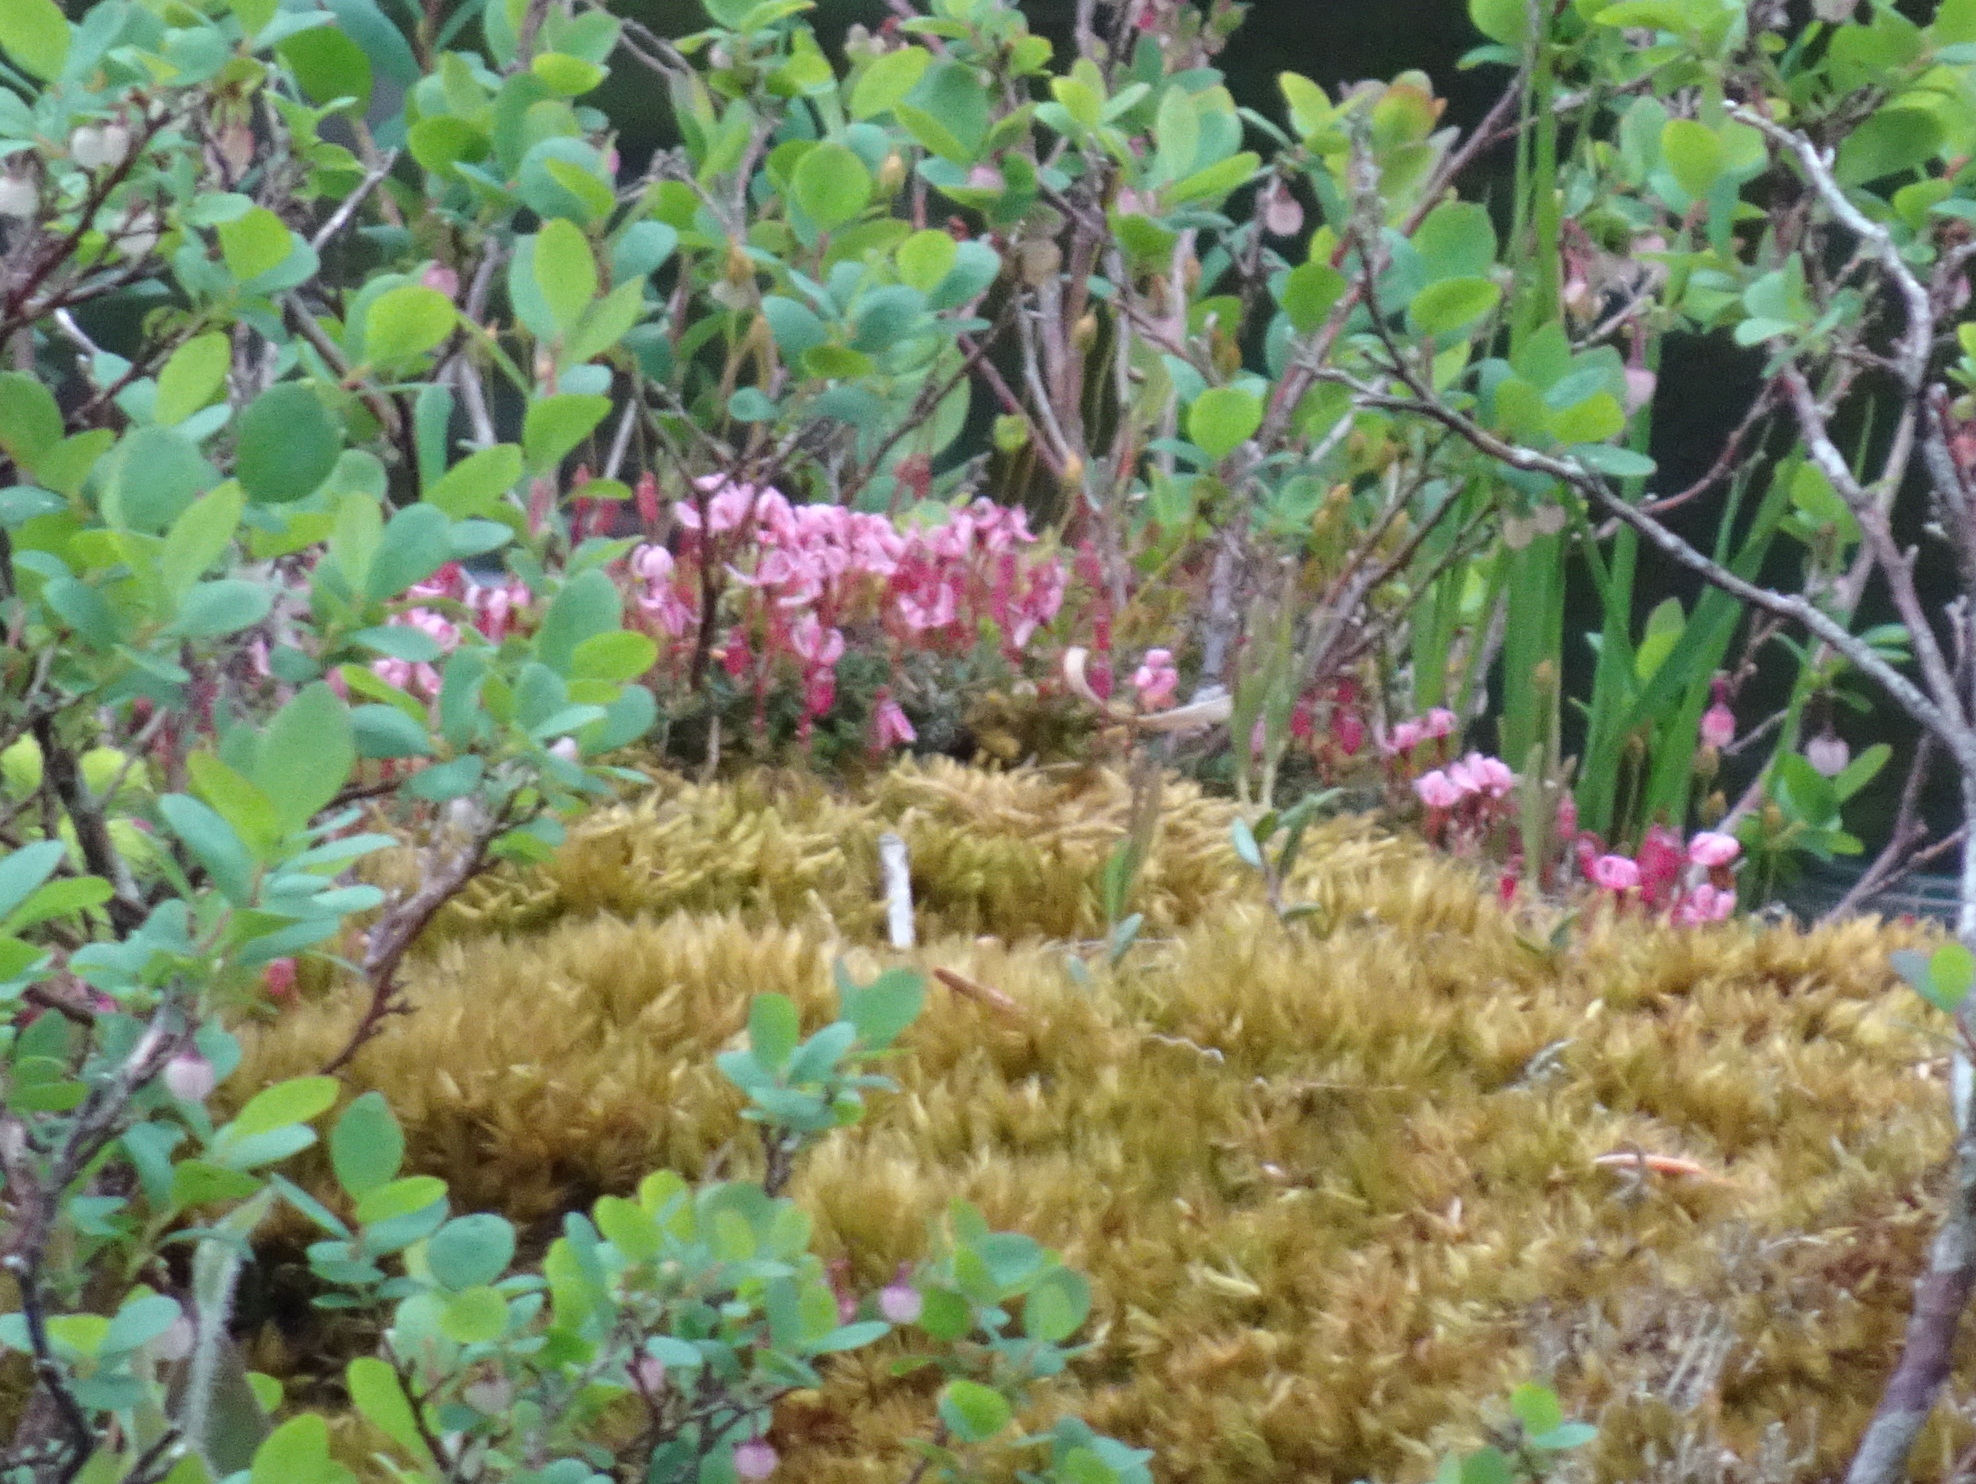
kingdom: Plantae
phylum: Tracheophyta
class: Magnoliopsida
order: Ericales
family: Ericaceae
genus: Vaccinium
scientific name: Vaccinium oxycoccos
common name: Cranberry
